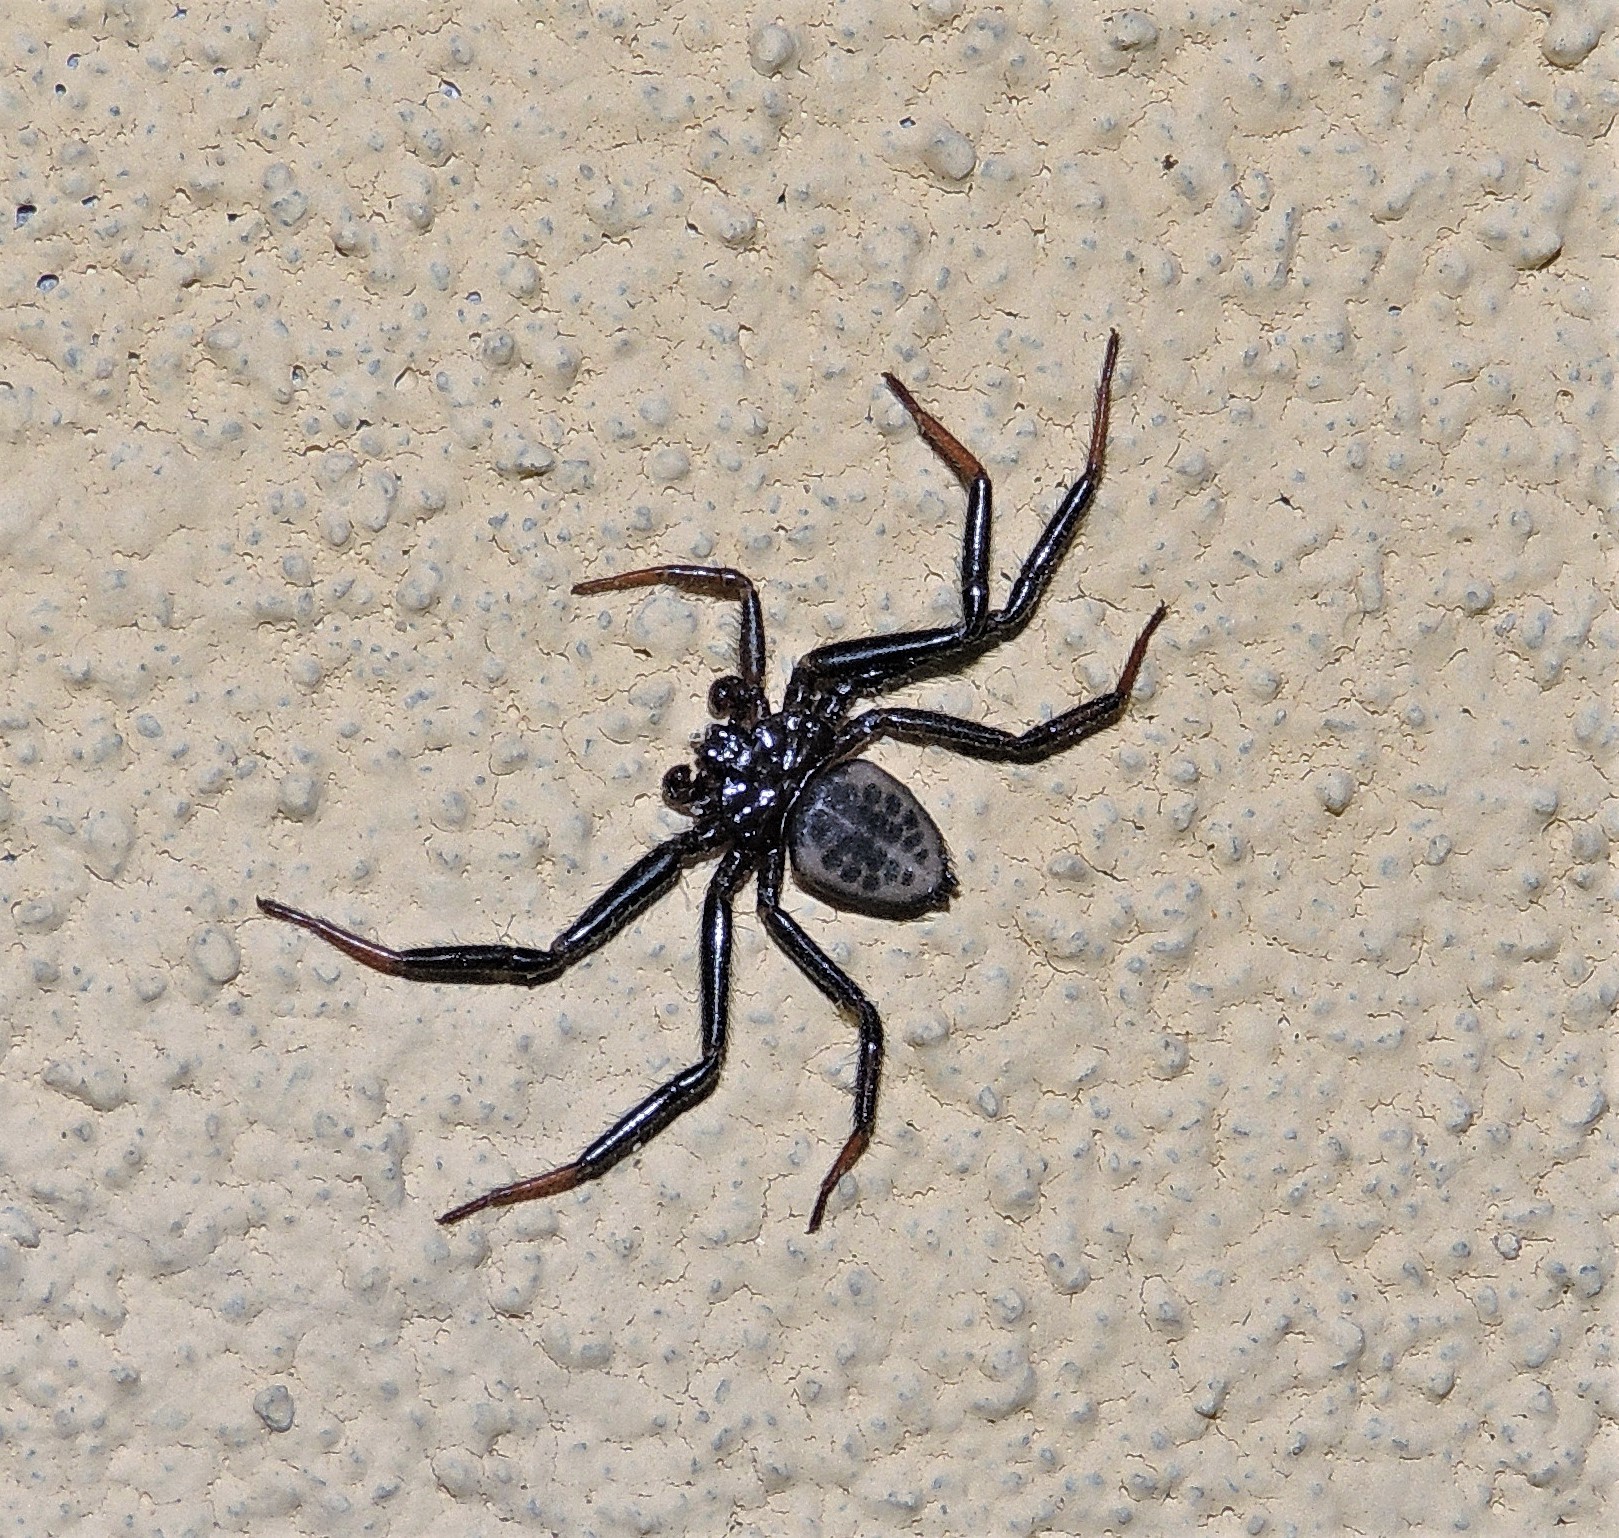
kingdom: Animalia
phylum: Arthropoda
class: Arachnida
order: Araneae
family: Trochanteriidae
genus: Vectius
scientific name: Vectius niger
